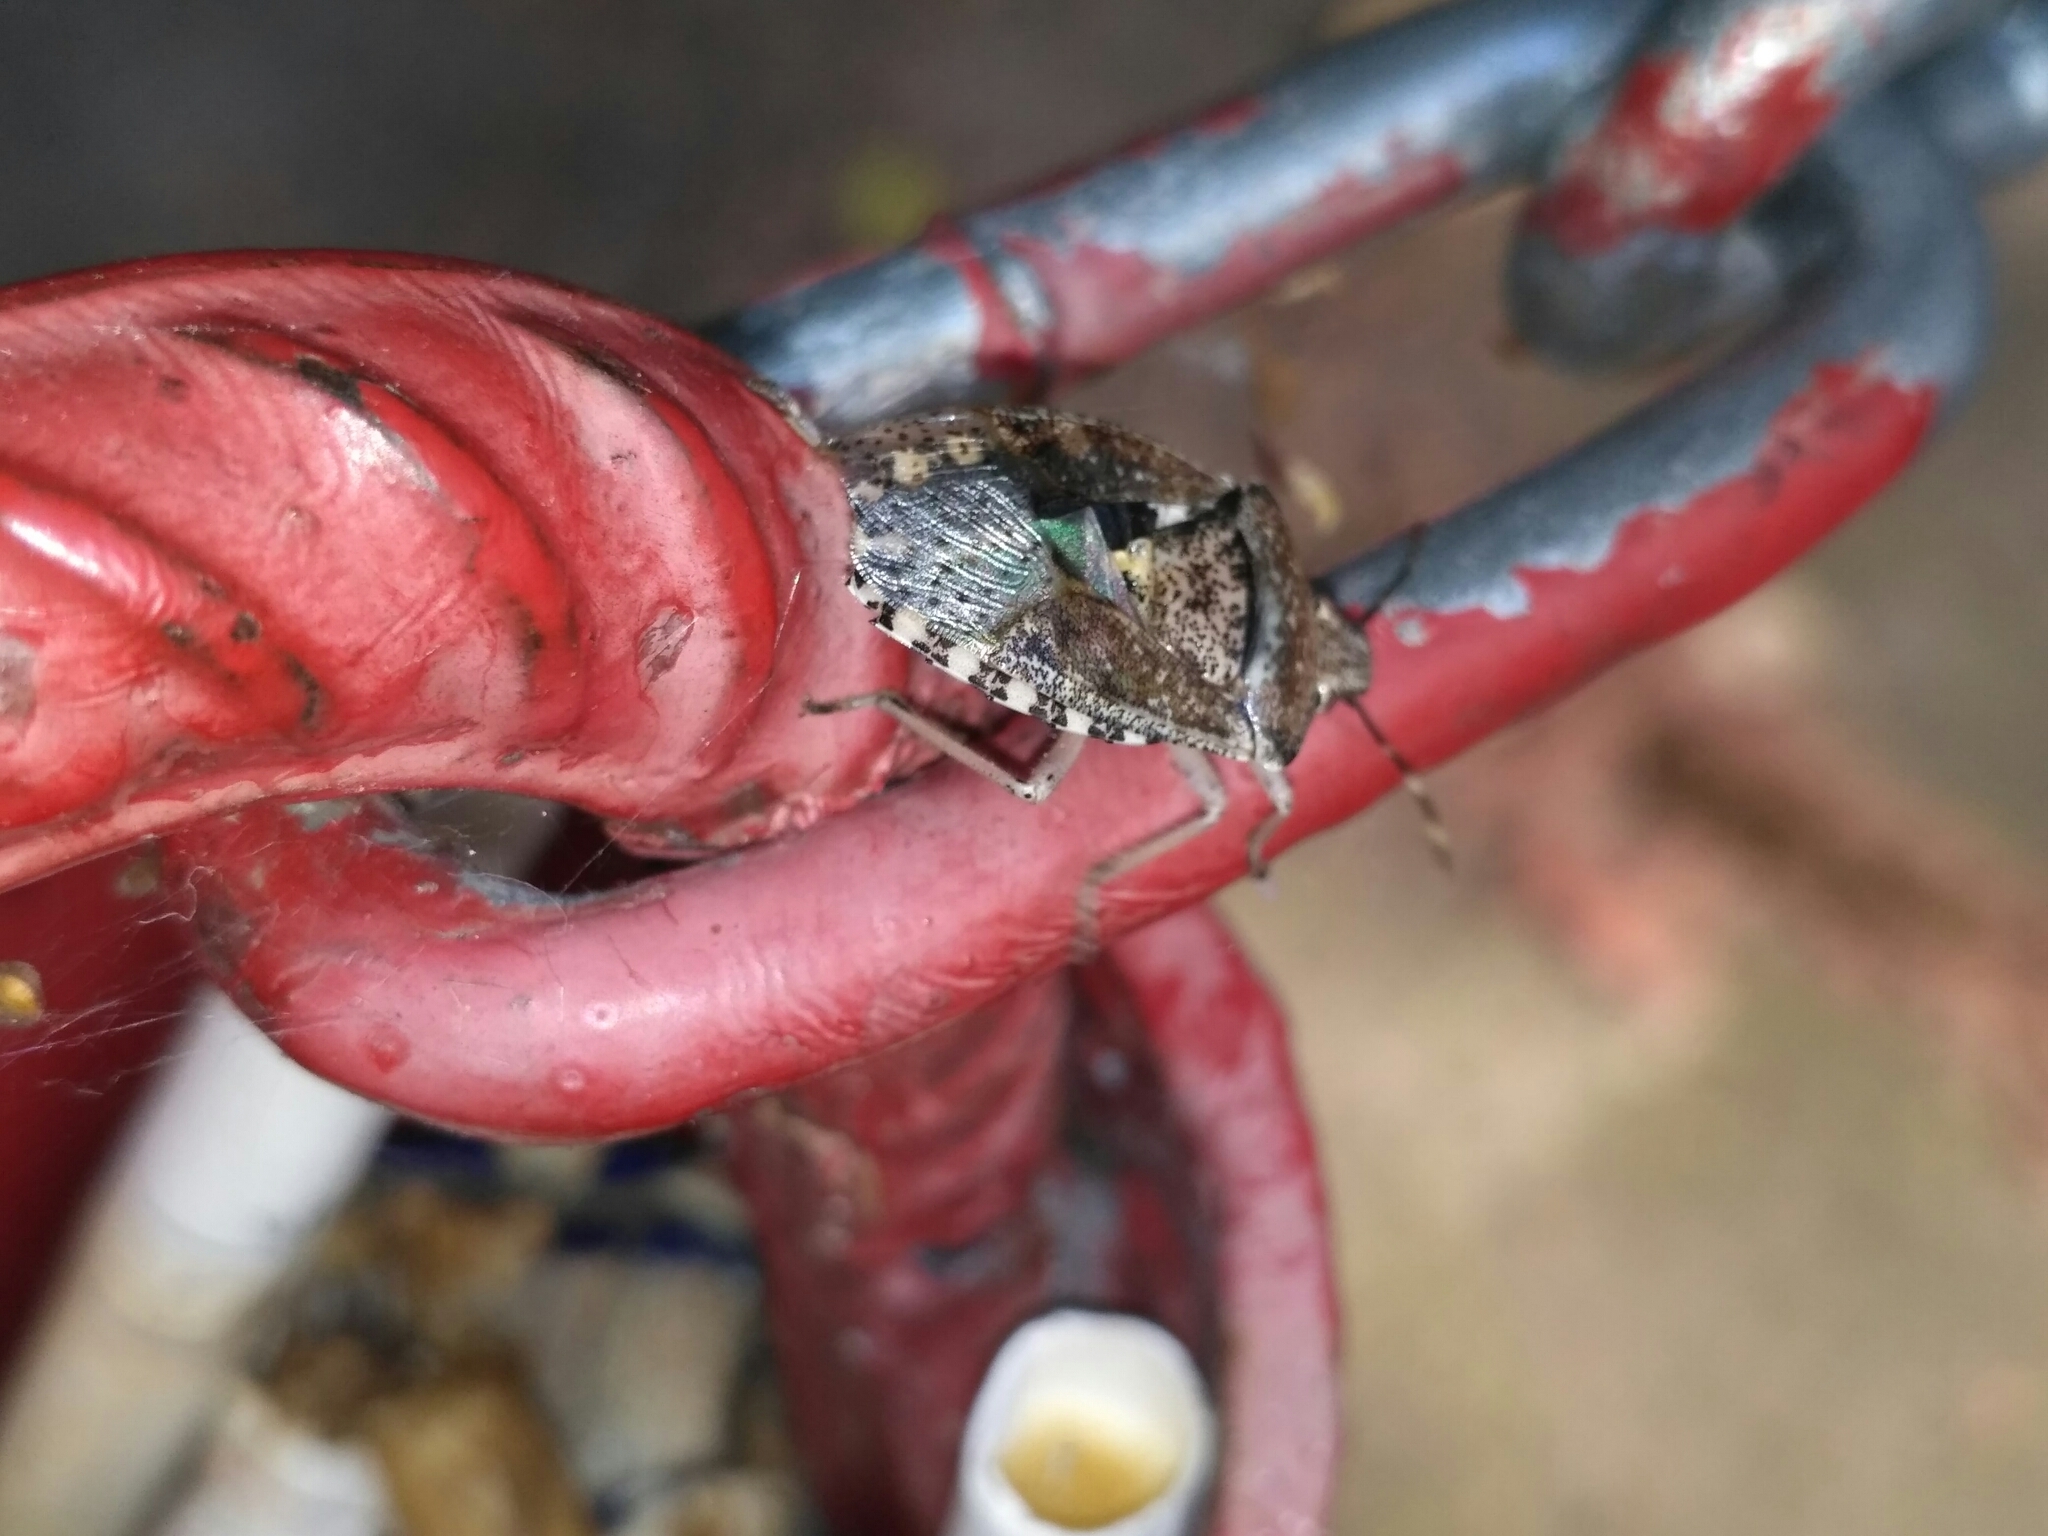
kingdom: Animalia
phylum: Arthropoda
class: Insecta
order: Hemiptera
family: Pentatomidae
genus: Rhaphigaster
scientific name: Rhaphigaster nebulosa
